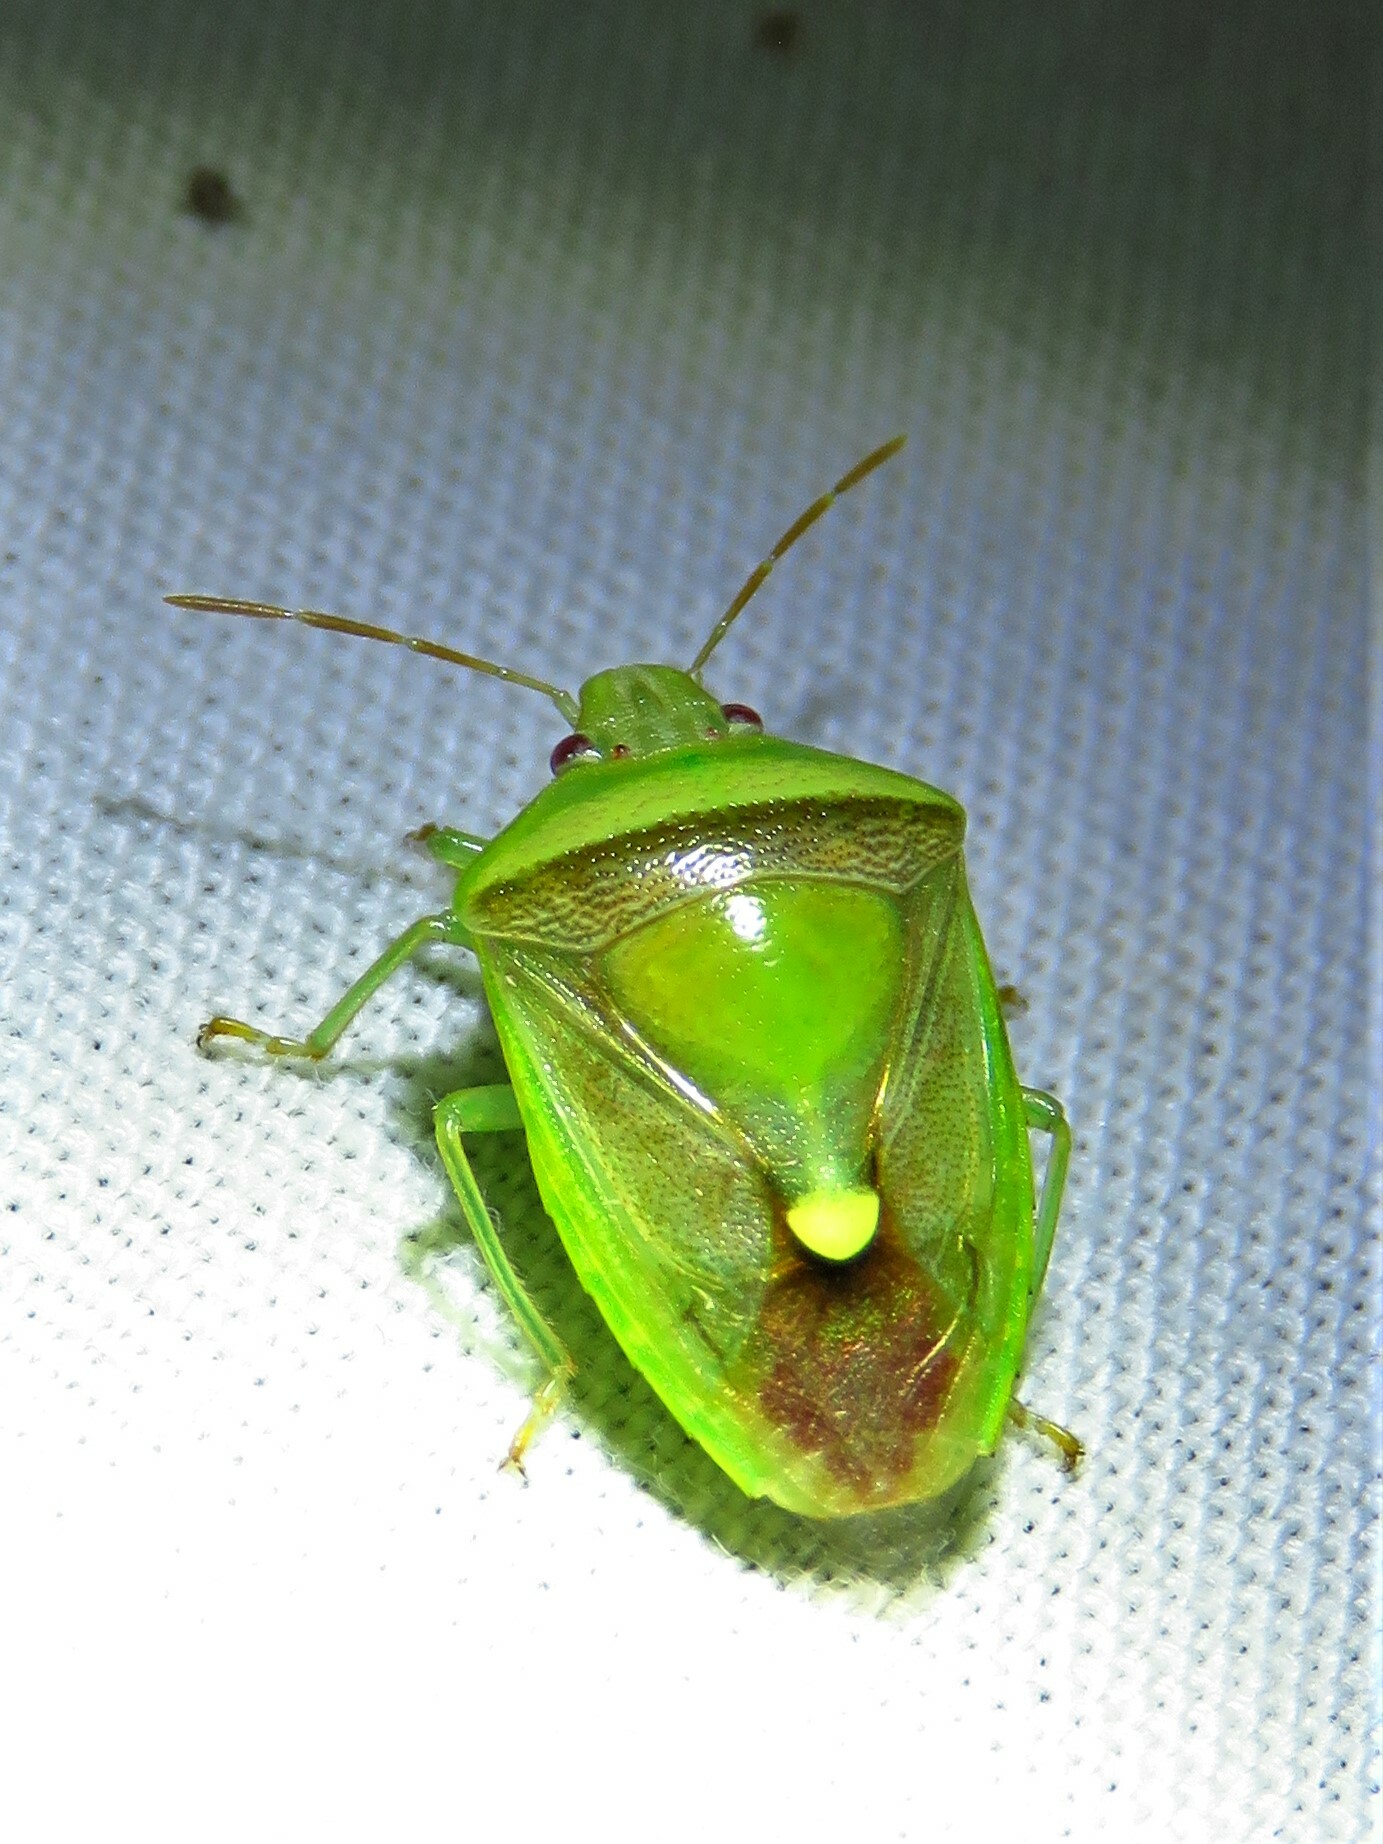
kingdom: Animalia
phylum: Arthropoda
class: Insecta
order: Hemiptera
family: Pentatomidae
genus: Banasa
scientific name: Banasa dimidiata
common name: Green burgundy stink bug
